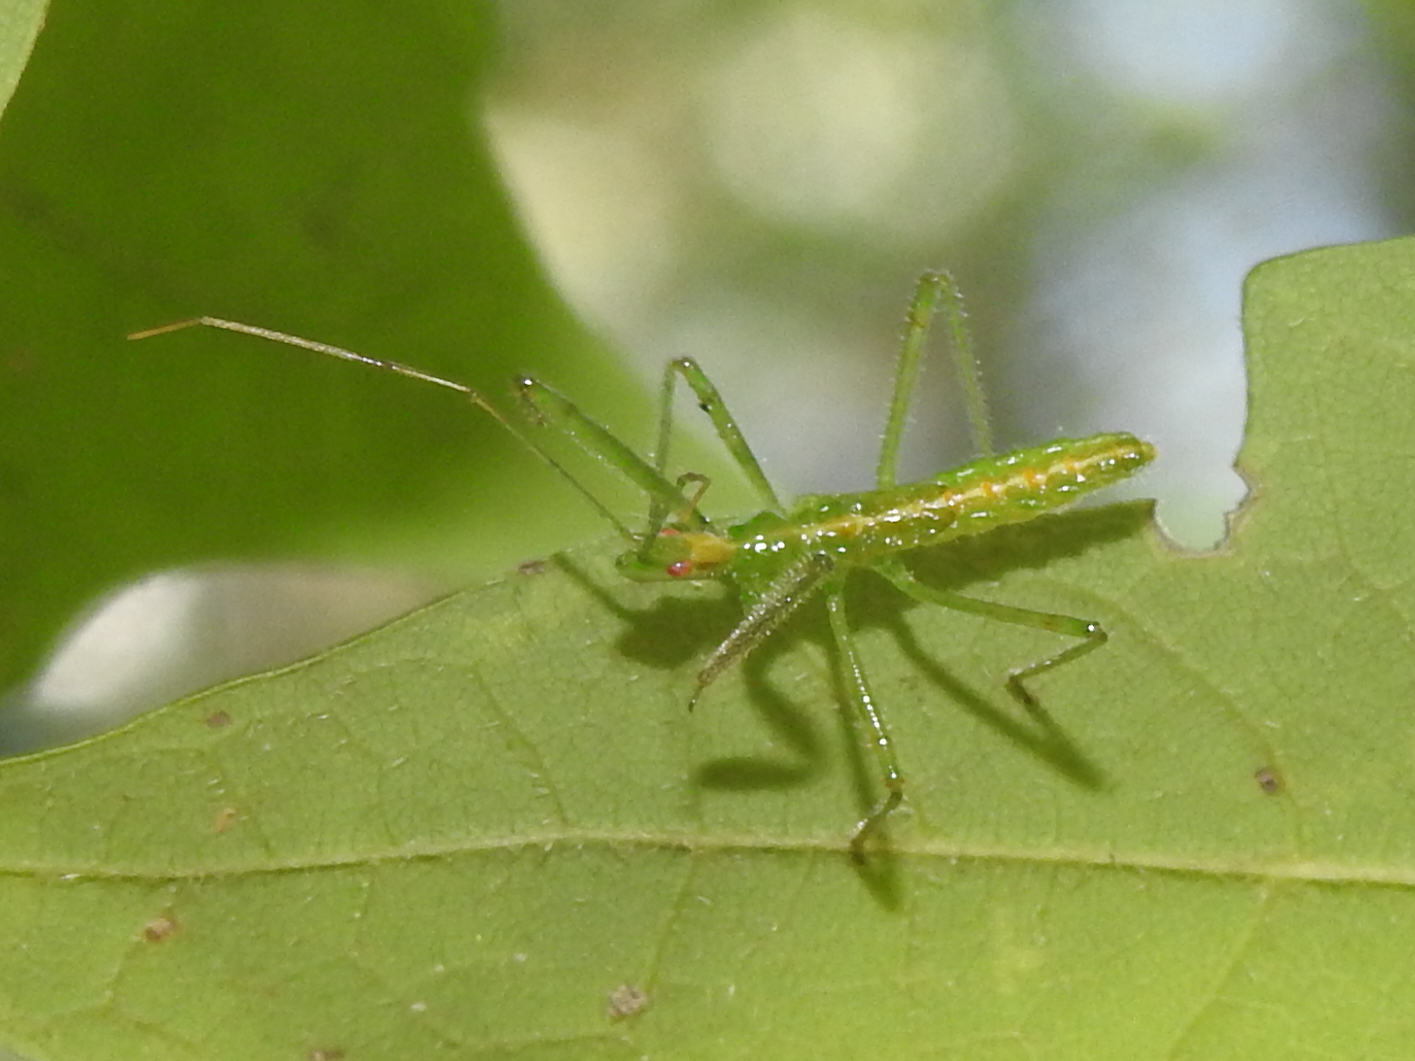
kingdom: Animalia
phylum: Arthropoda
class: Insecta
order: Hemiptera
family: Reduviidae
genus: Zelus
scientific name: Zelus luridus
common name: Pale green assassin bug
